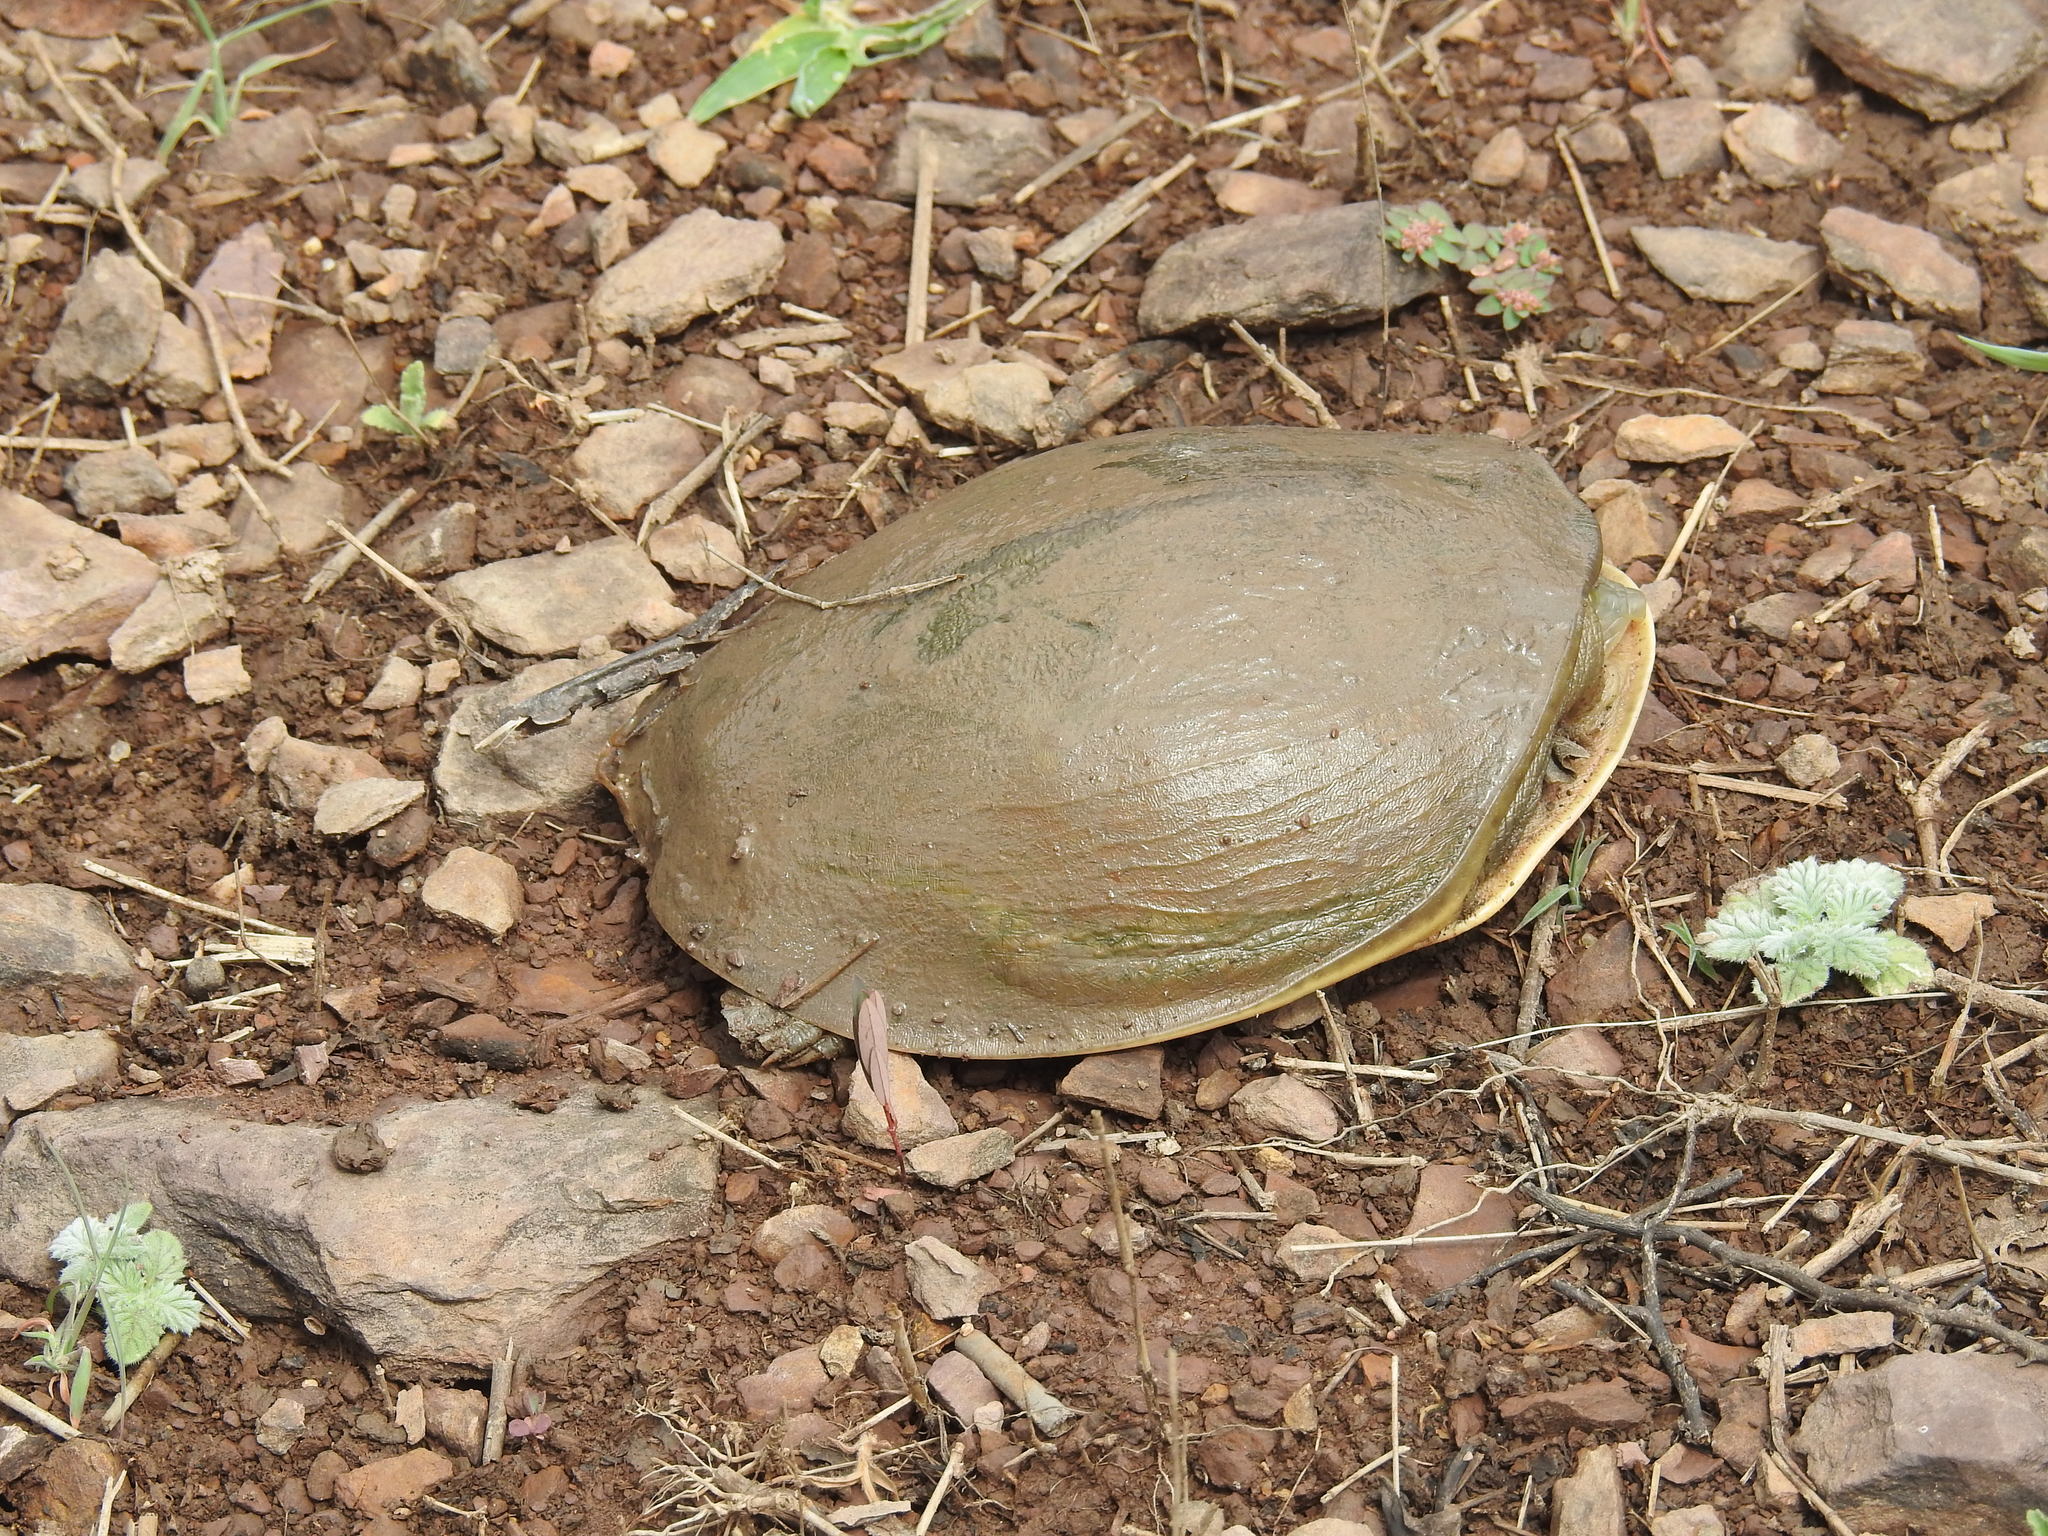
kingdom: Animalia
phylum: Chordata
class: Testudines
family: Trionychidae
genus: Lissemys
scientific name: Lissemys punctata
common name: Indian flap-shelled turtle
